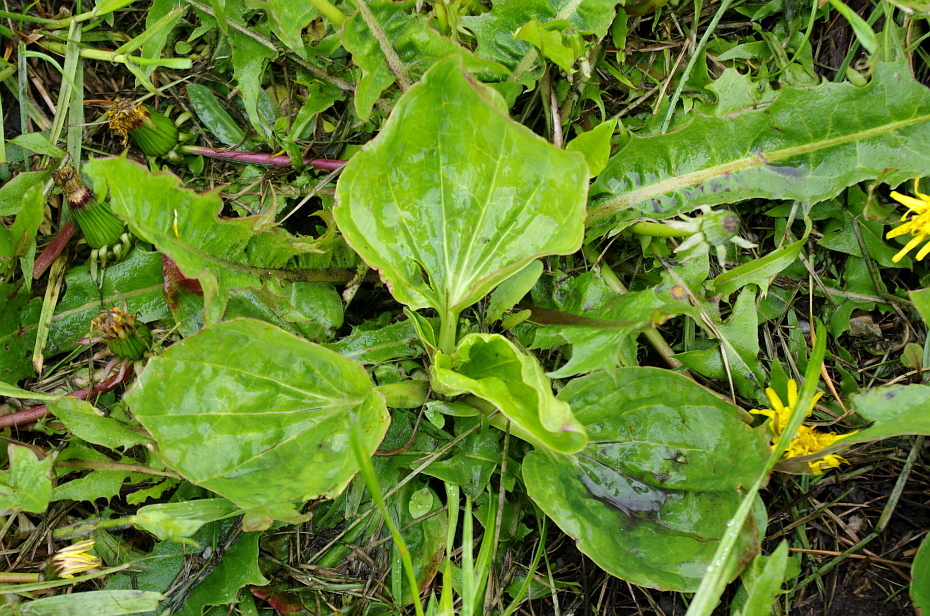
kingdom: Plantae
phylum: Tracheophyta
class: Magnoliopsida
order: Lamiales
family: Plantaginaceae
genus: Plantago
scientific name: Plantago major
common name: Common plantain
